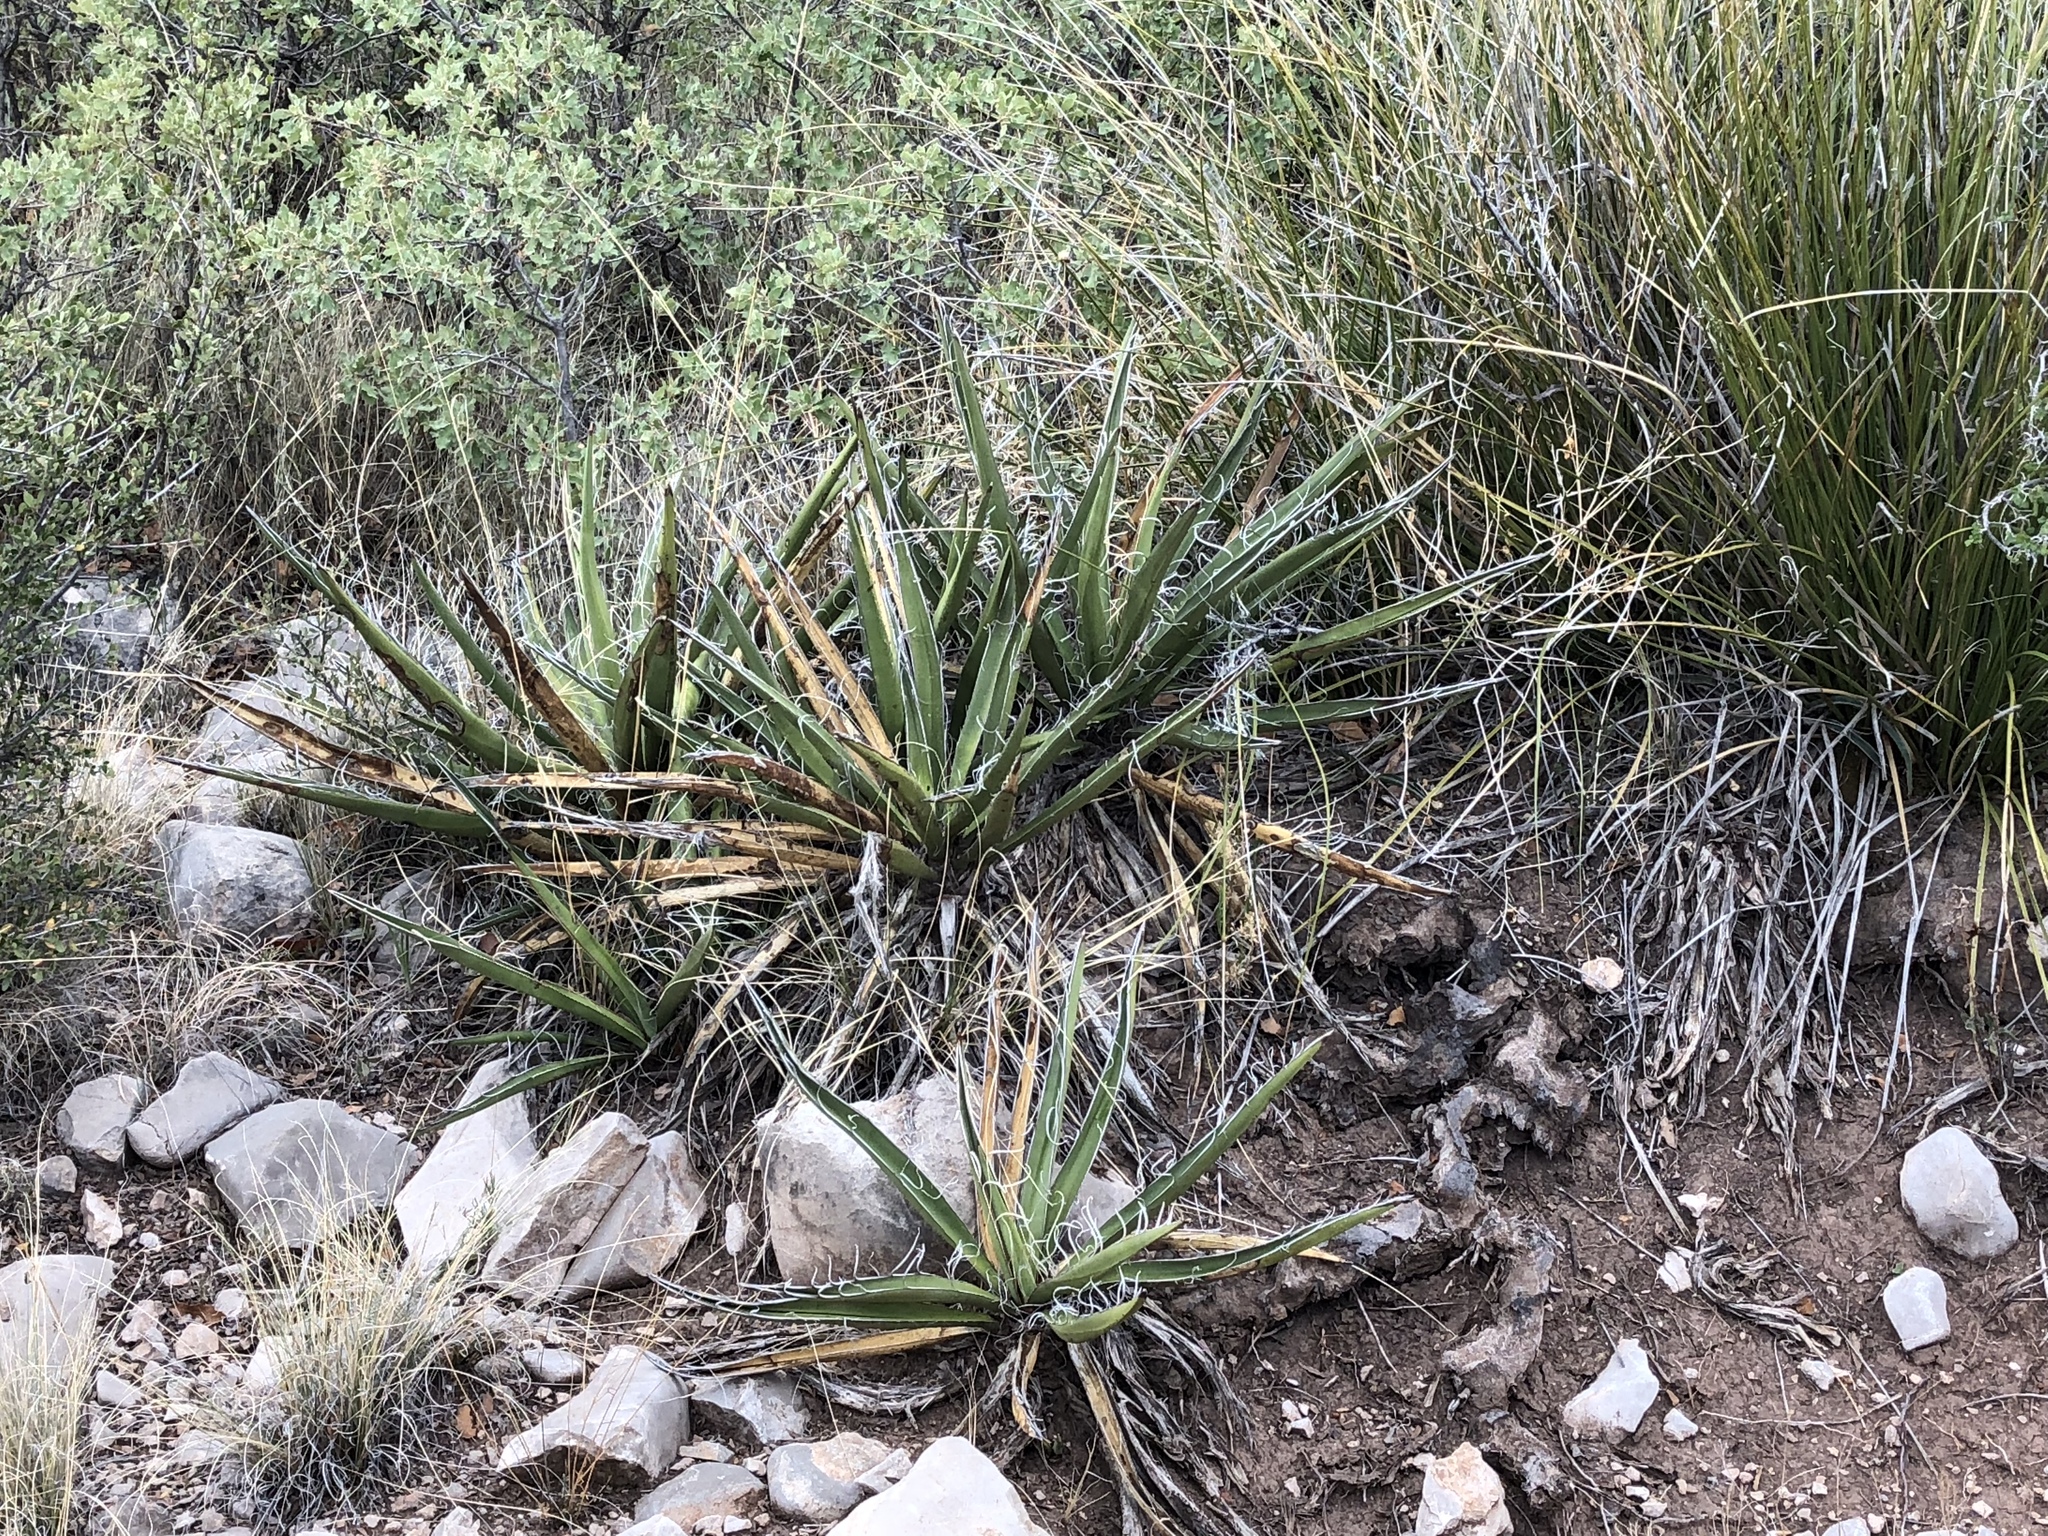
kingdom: Plantae
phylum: Tracheophyta
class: Liliopsida
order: Asparagales
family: Asparagaceae
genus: Yucca
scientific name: Yucca baccata
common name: Banana yucca
